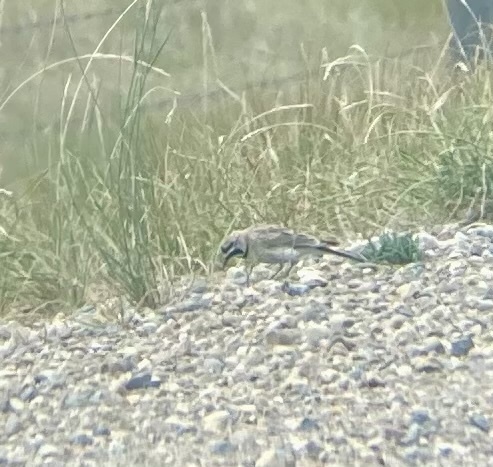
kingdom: Animalia
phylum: Chordata
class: Aves
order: Passeriformes
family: Alaudidae
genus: Eremophila
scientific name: Eremophila alpestris
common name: Horned lark
